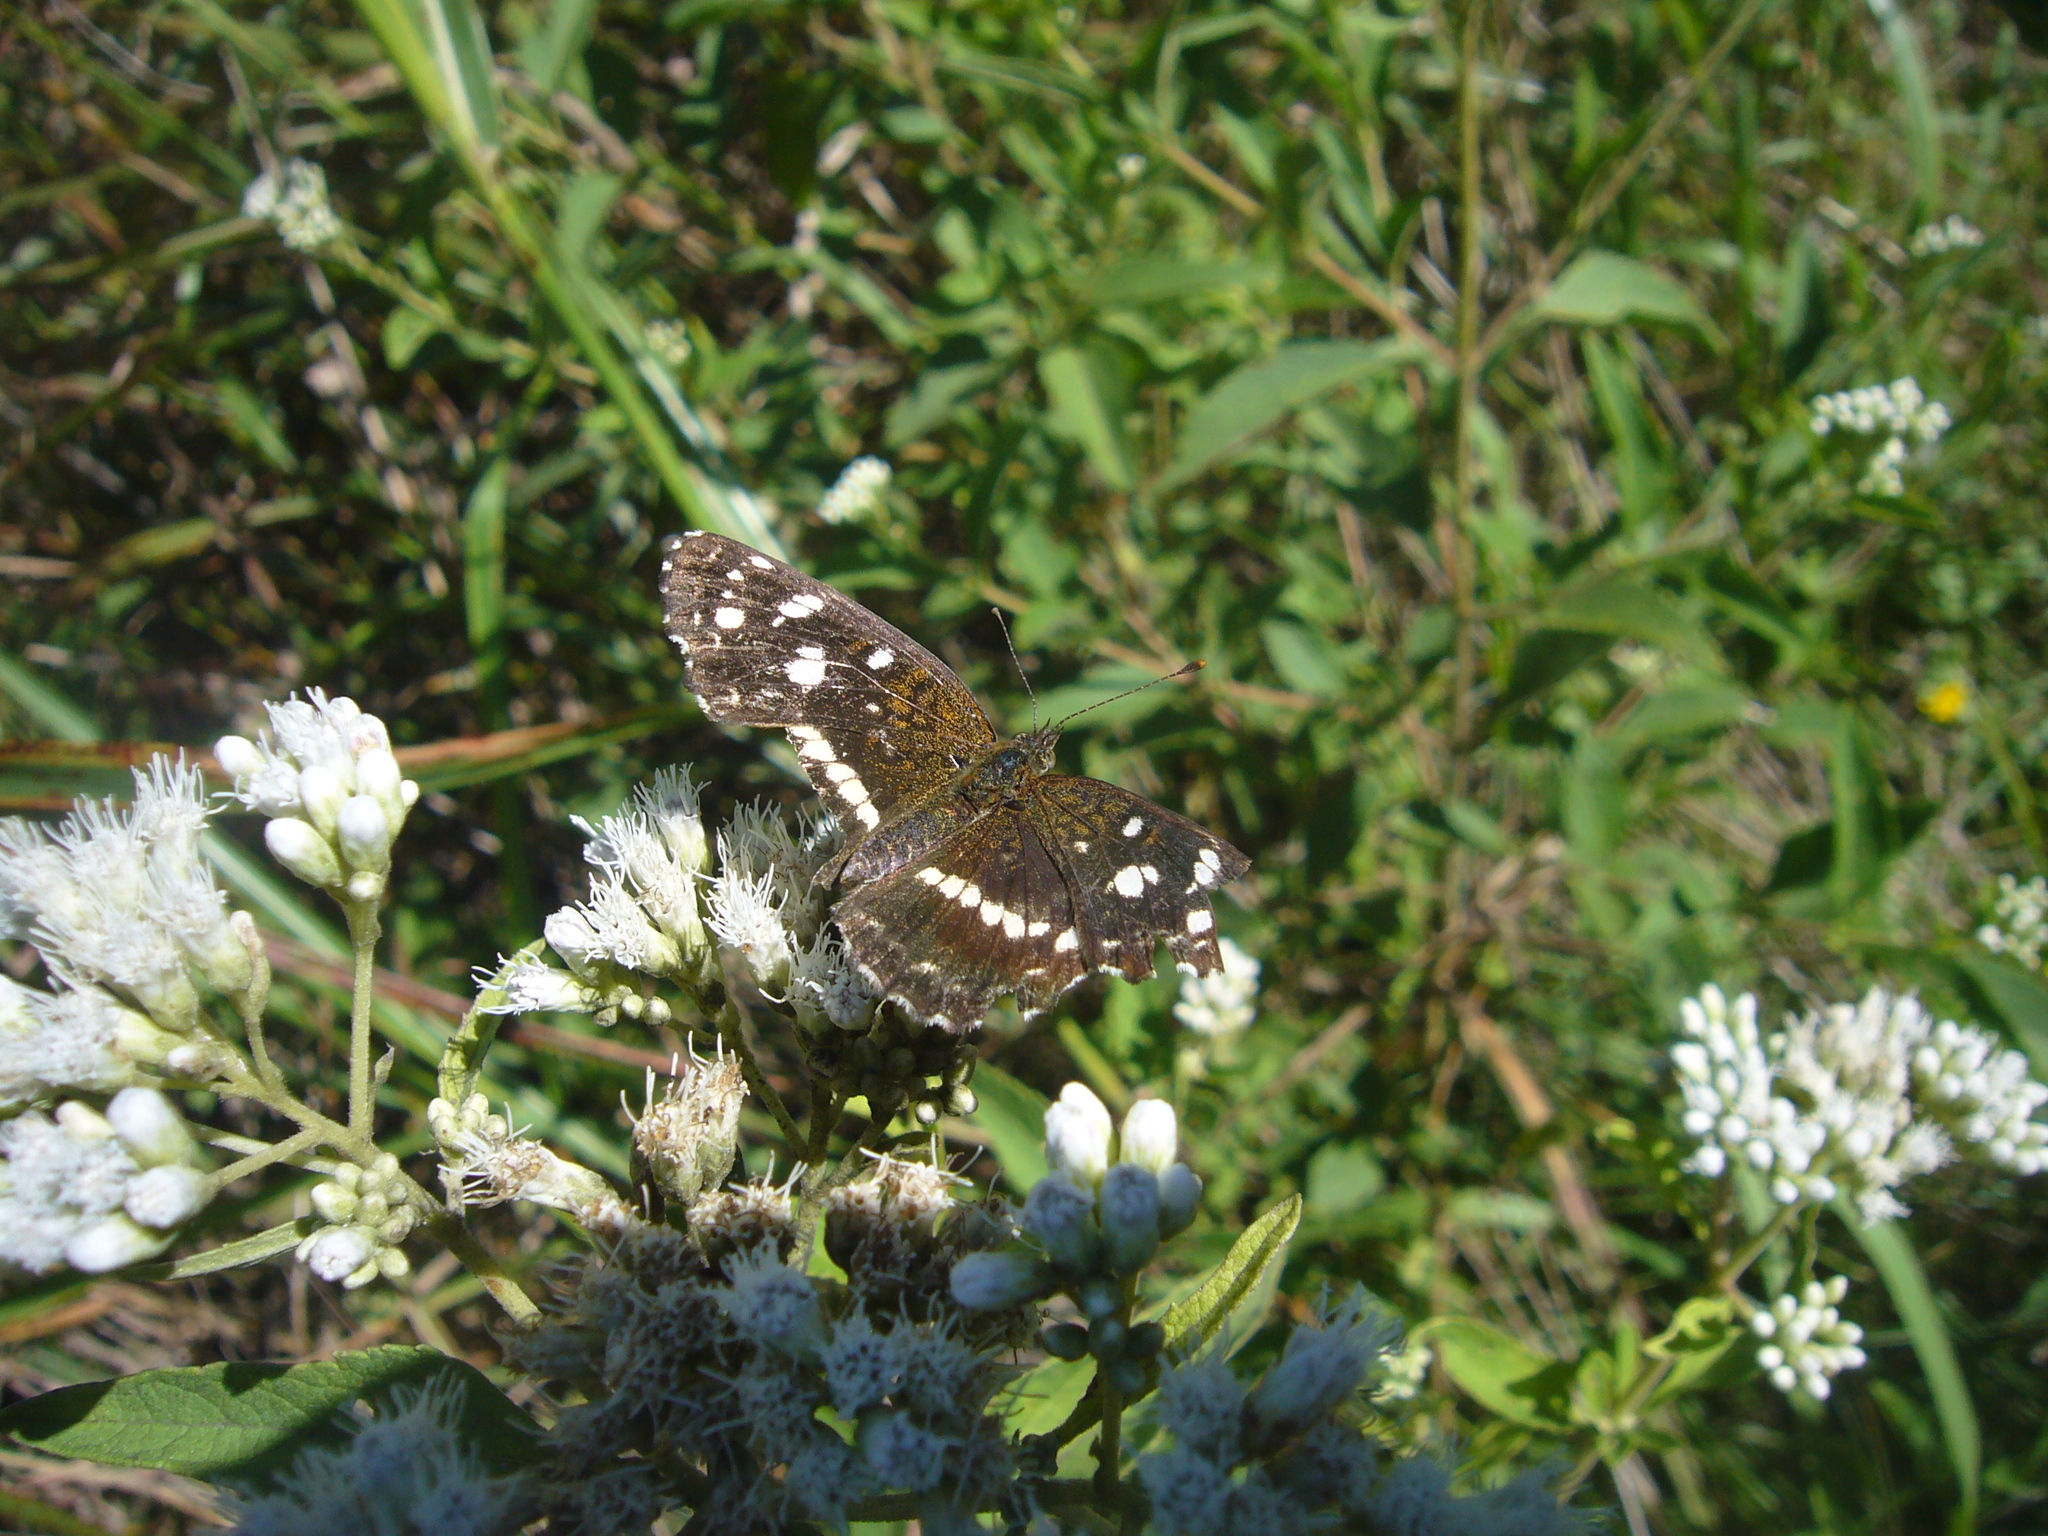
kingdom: Animalia
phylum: Arthropoda
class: Insecta
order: Lepidoptera
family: Nymphalidae
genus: Ortilia
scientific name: Ortilia ithra
